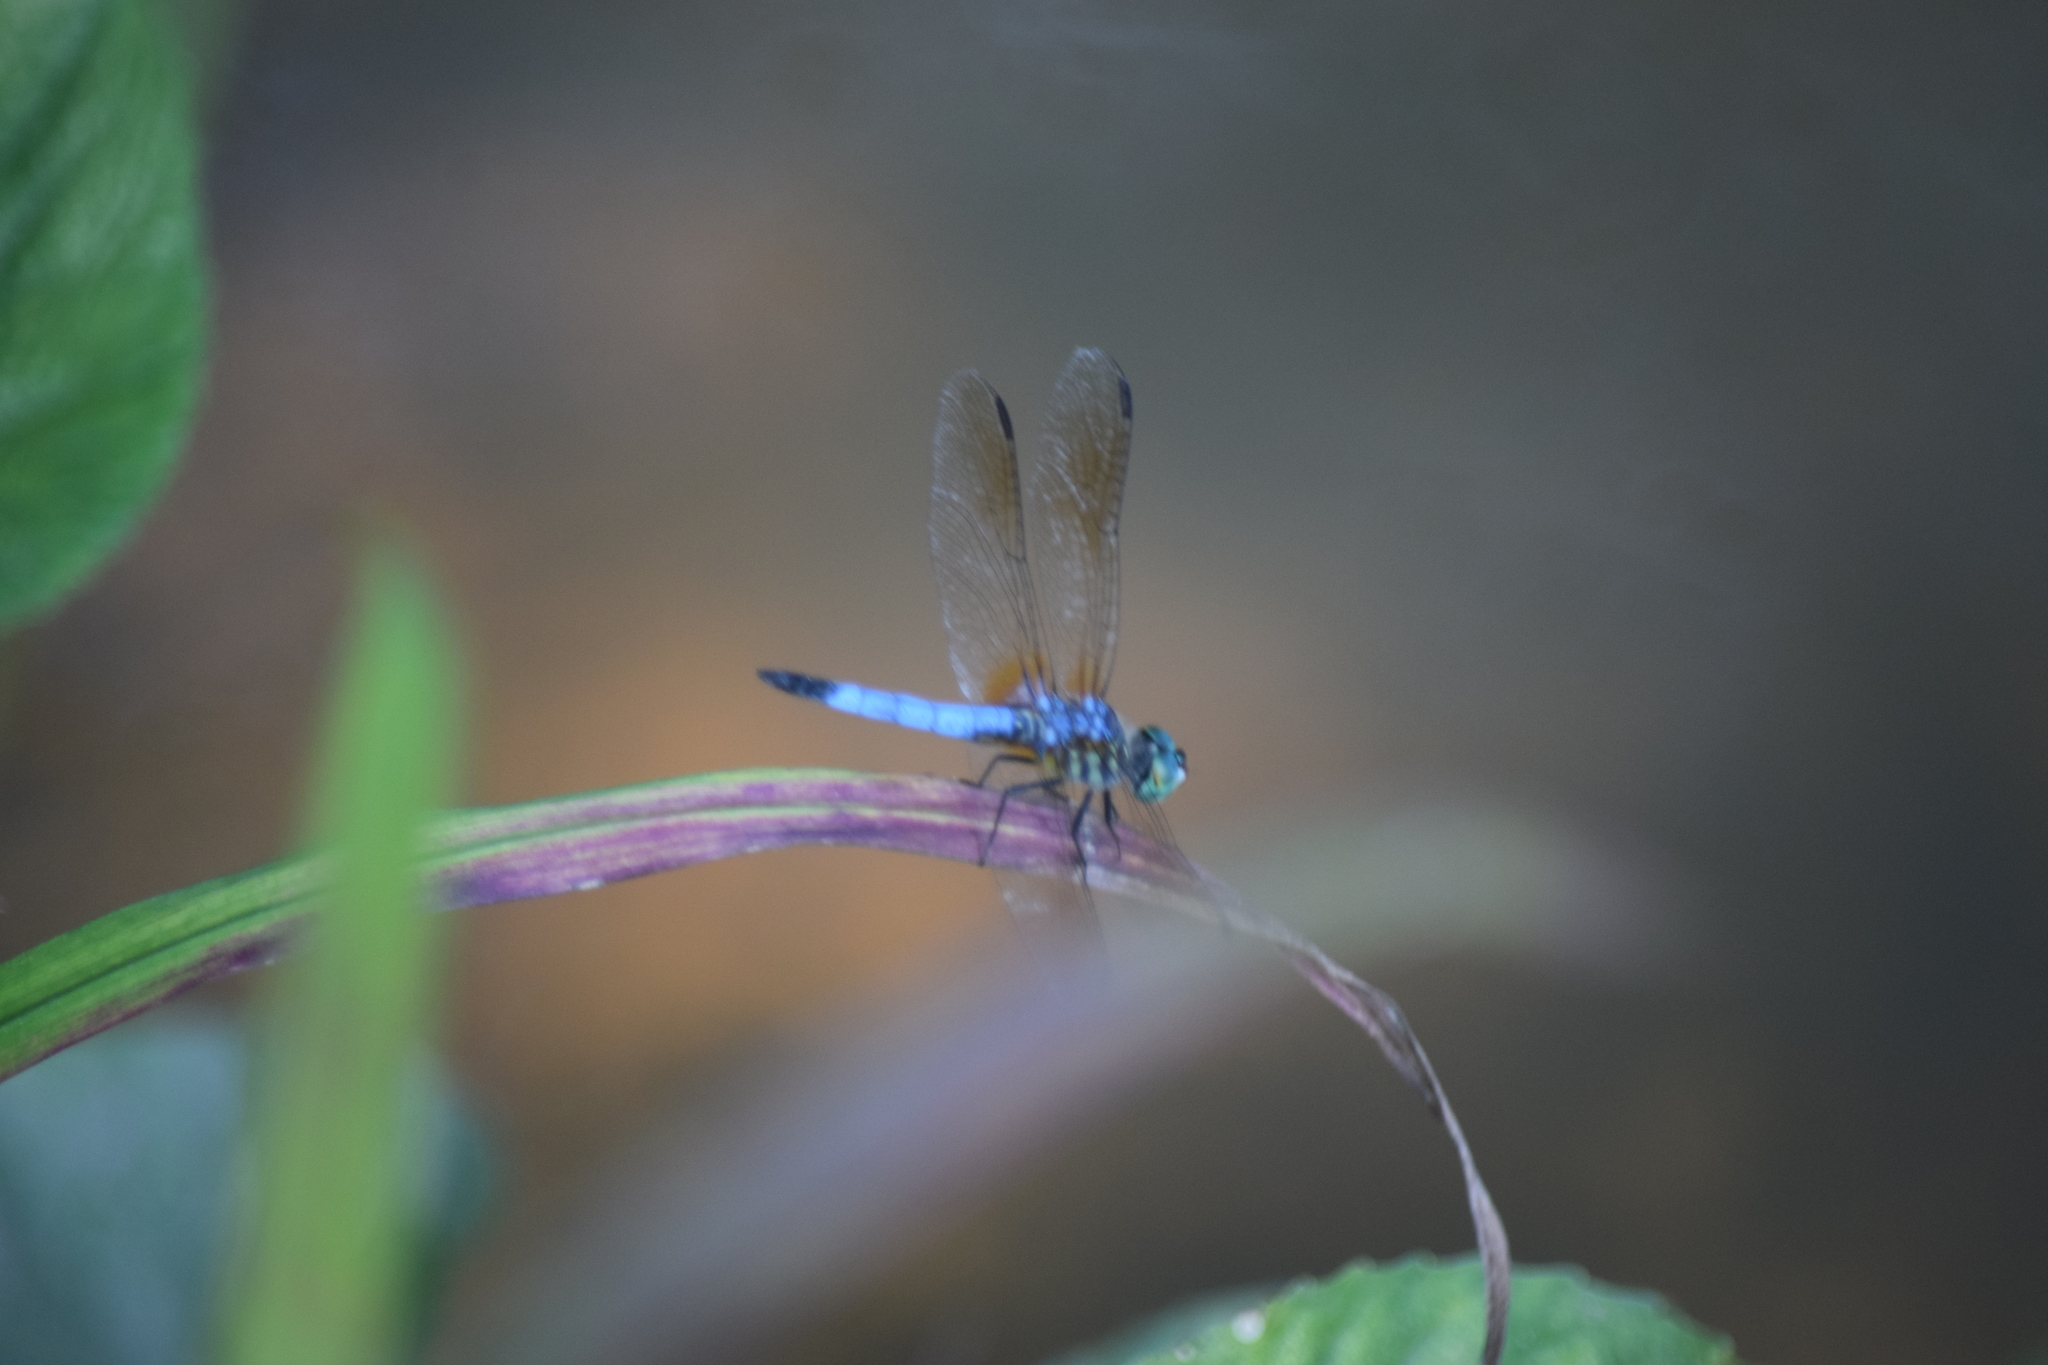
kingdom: Animalia
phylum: Arthropoda
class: Insecta
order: Odonata
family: Libellulidae
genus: Pachydiplax
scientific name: Pachydiplax longipennis
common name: Blue dasher
